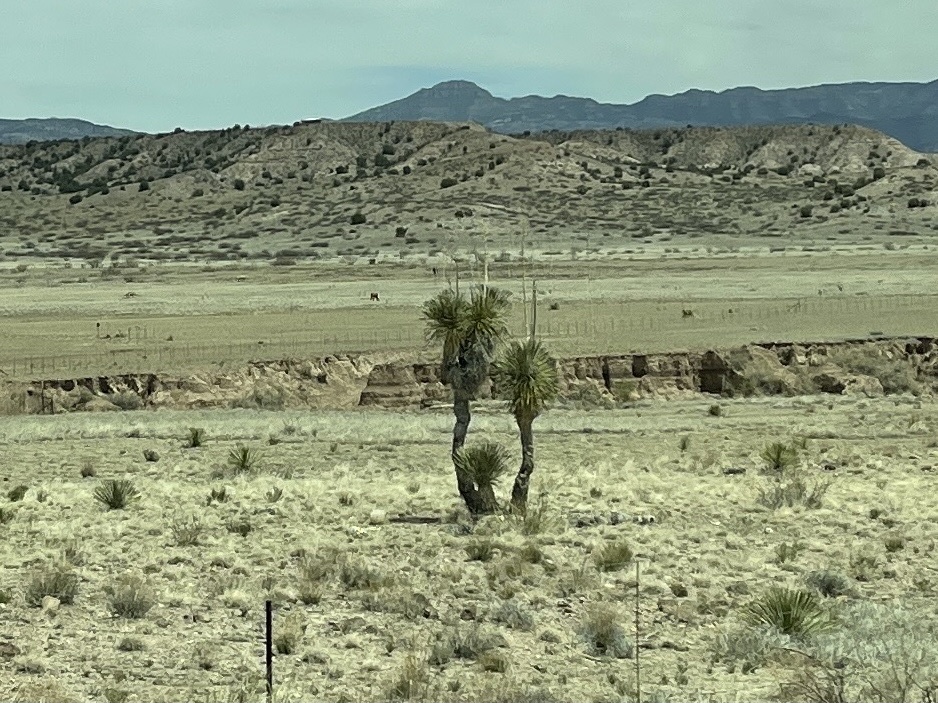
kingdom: Plantae
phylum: Tracheophyta
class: Liliopsida
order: Asparagales
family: Asparagaceae
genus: Yucca
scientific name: Yucca elata
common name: Palmella
